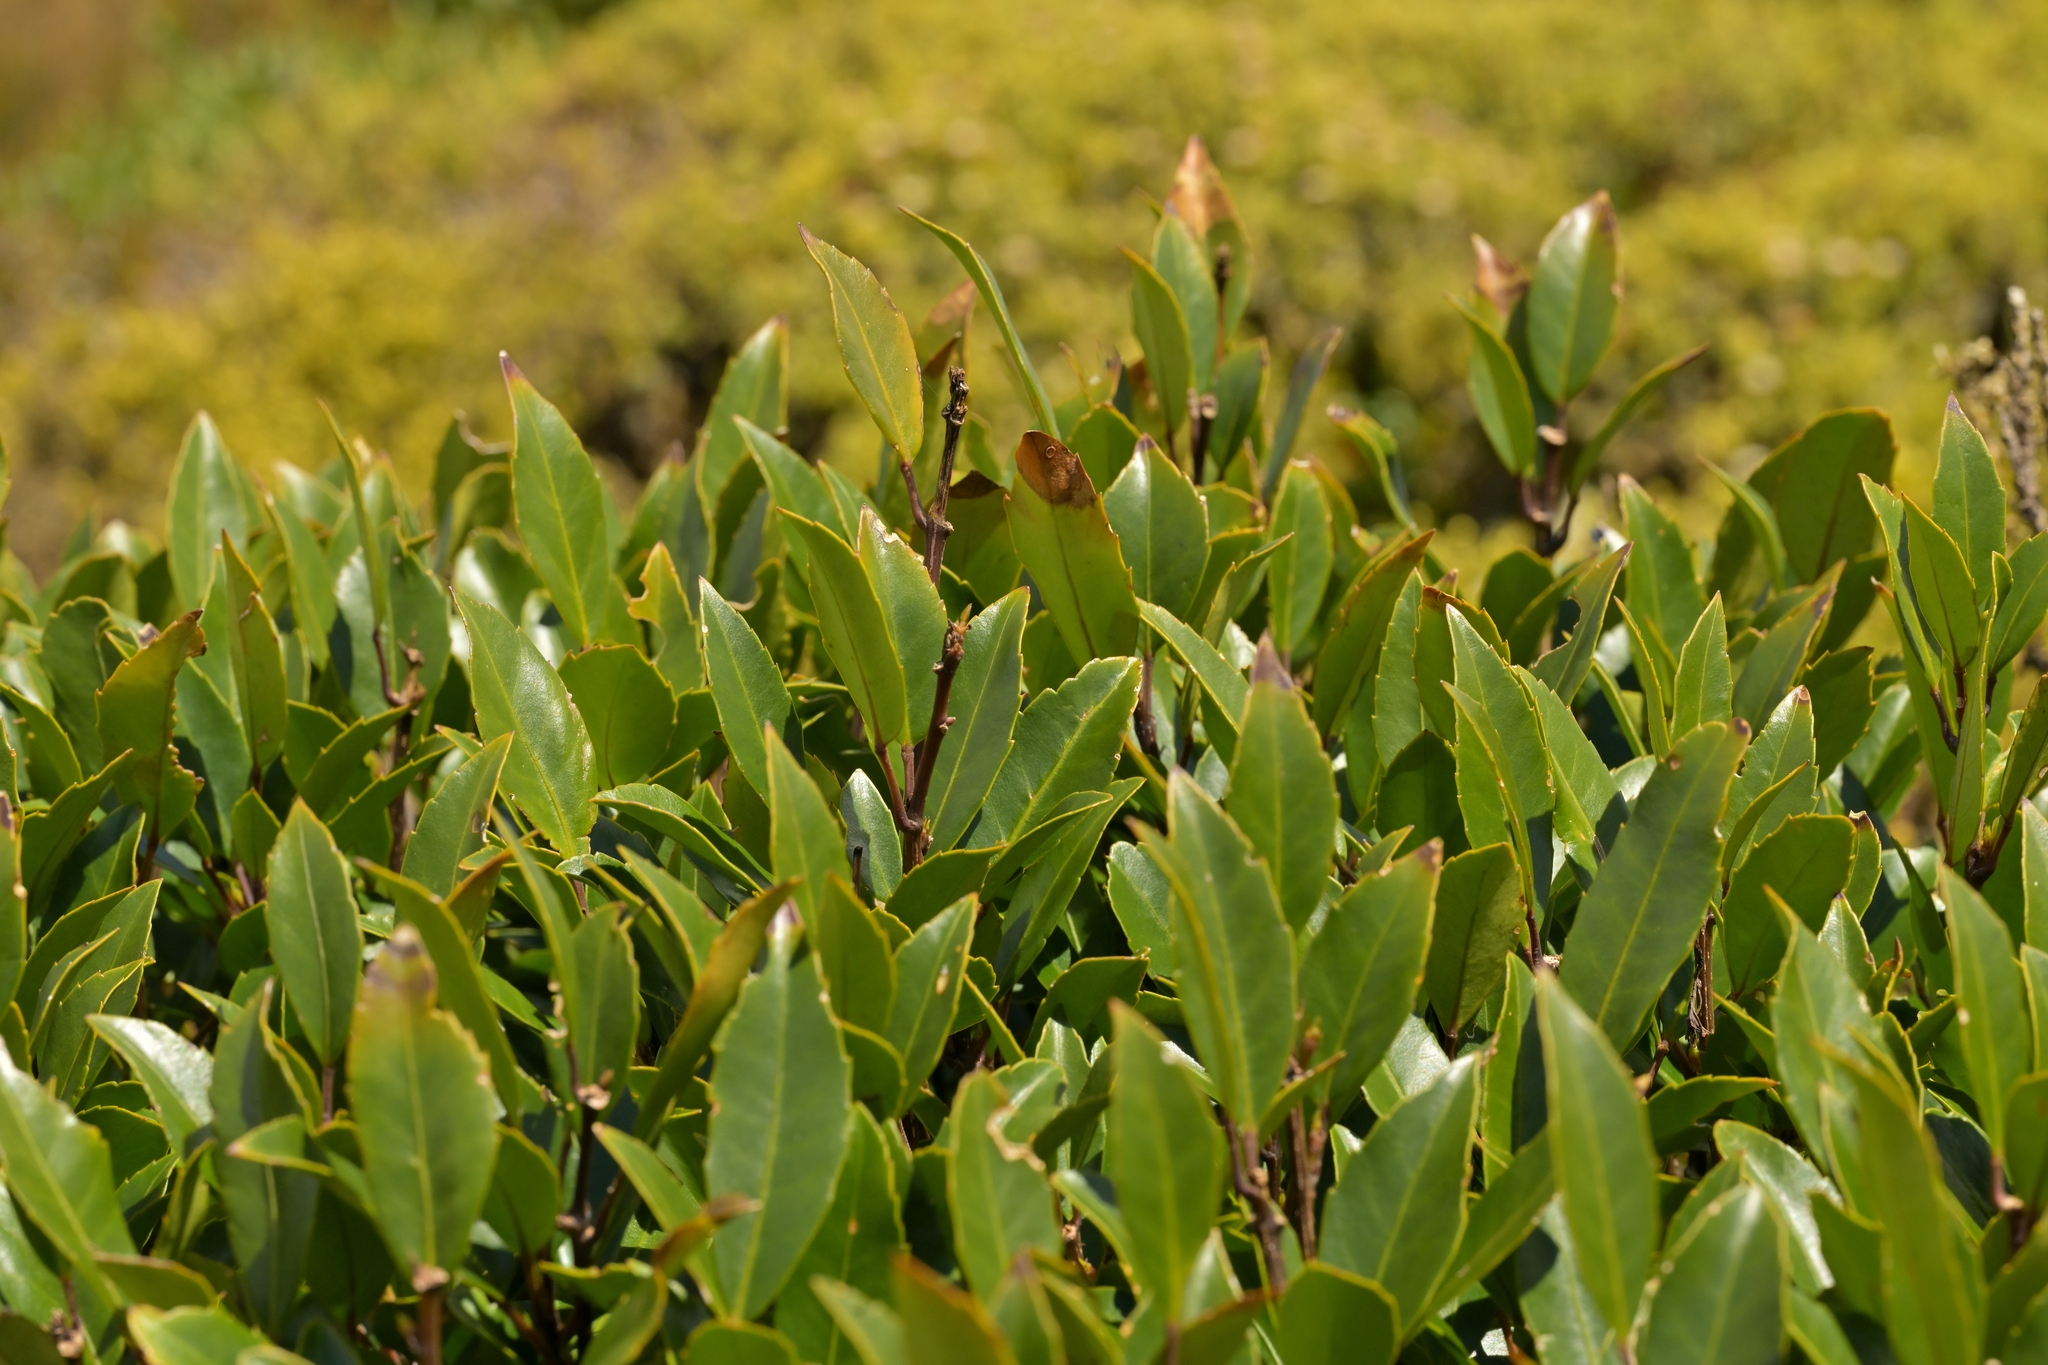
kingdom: Plantae
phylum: Tracheophyta
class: Magnoliopsida
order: Apiales
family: Araliaceae
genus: Raukaua
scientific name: Raukaua simplex
